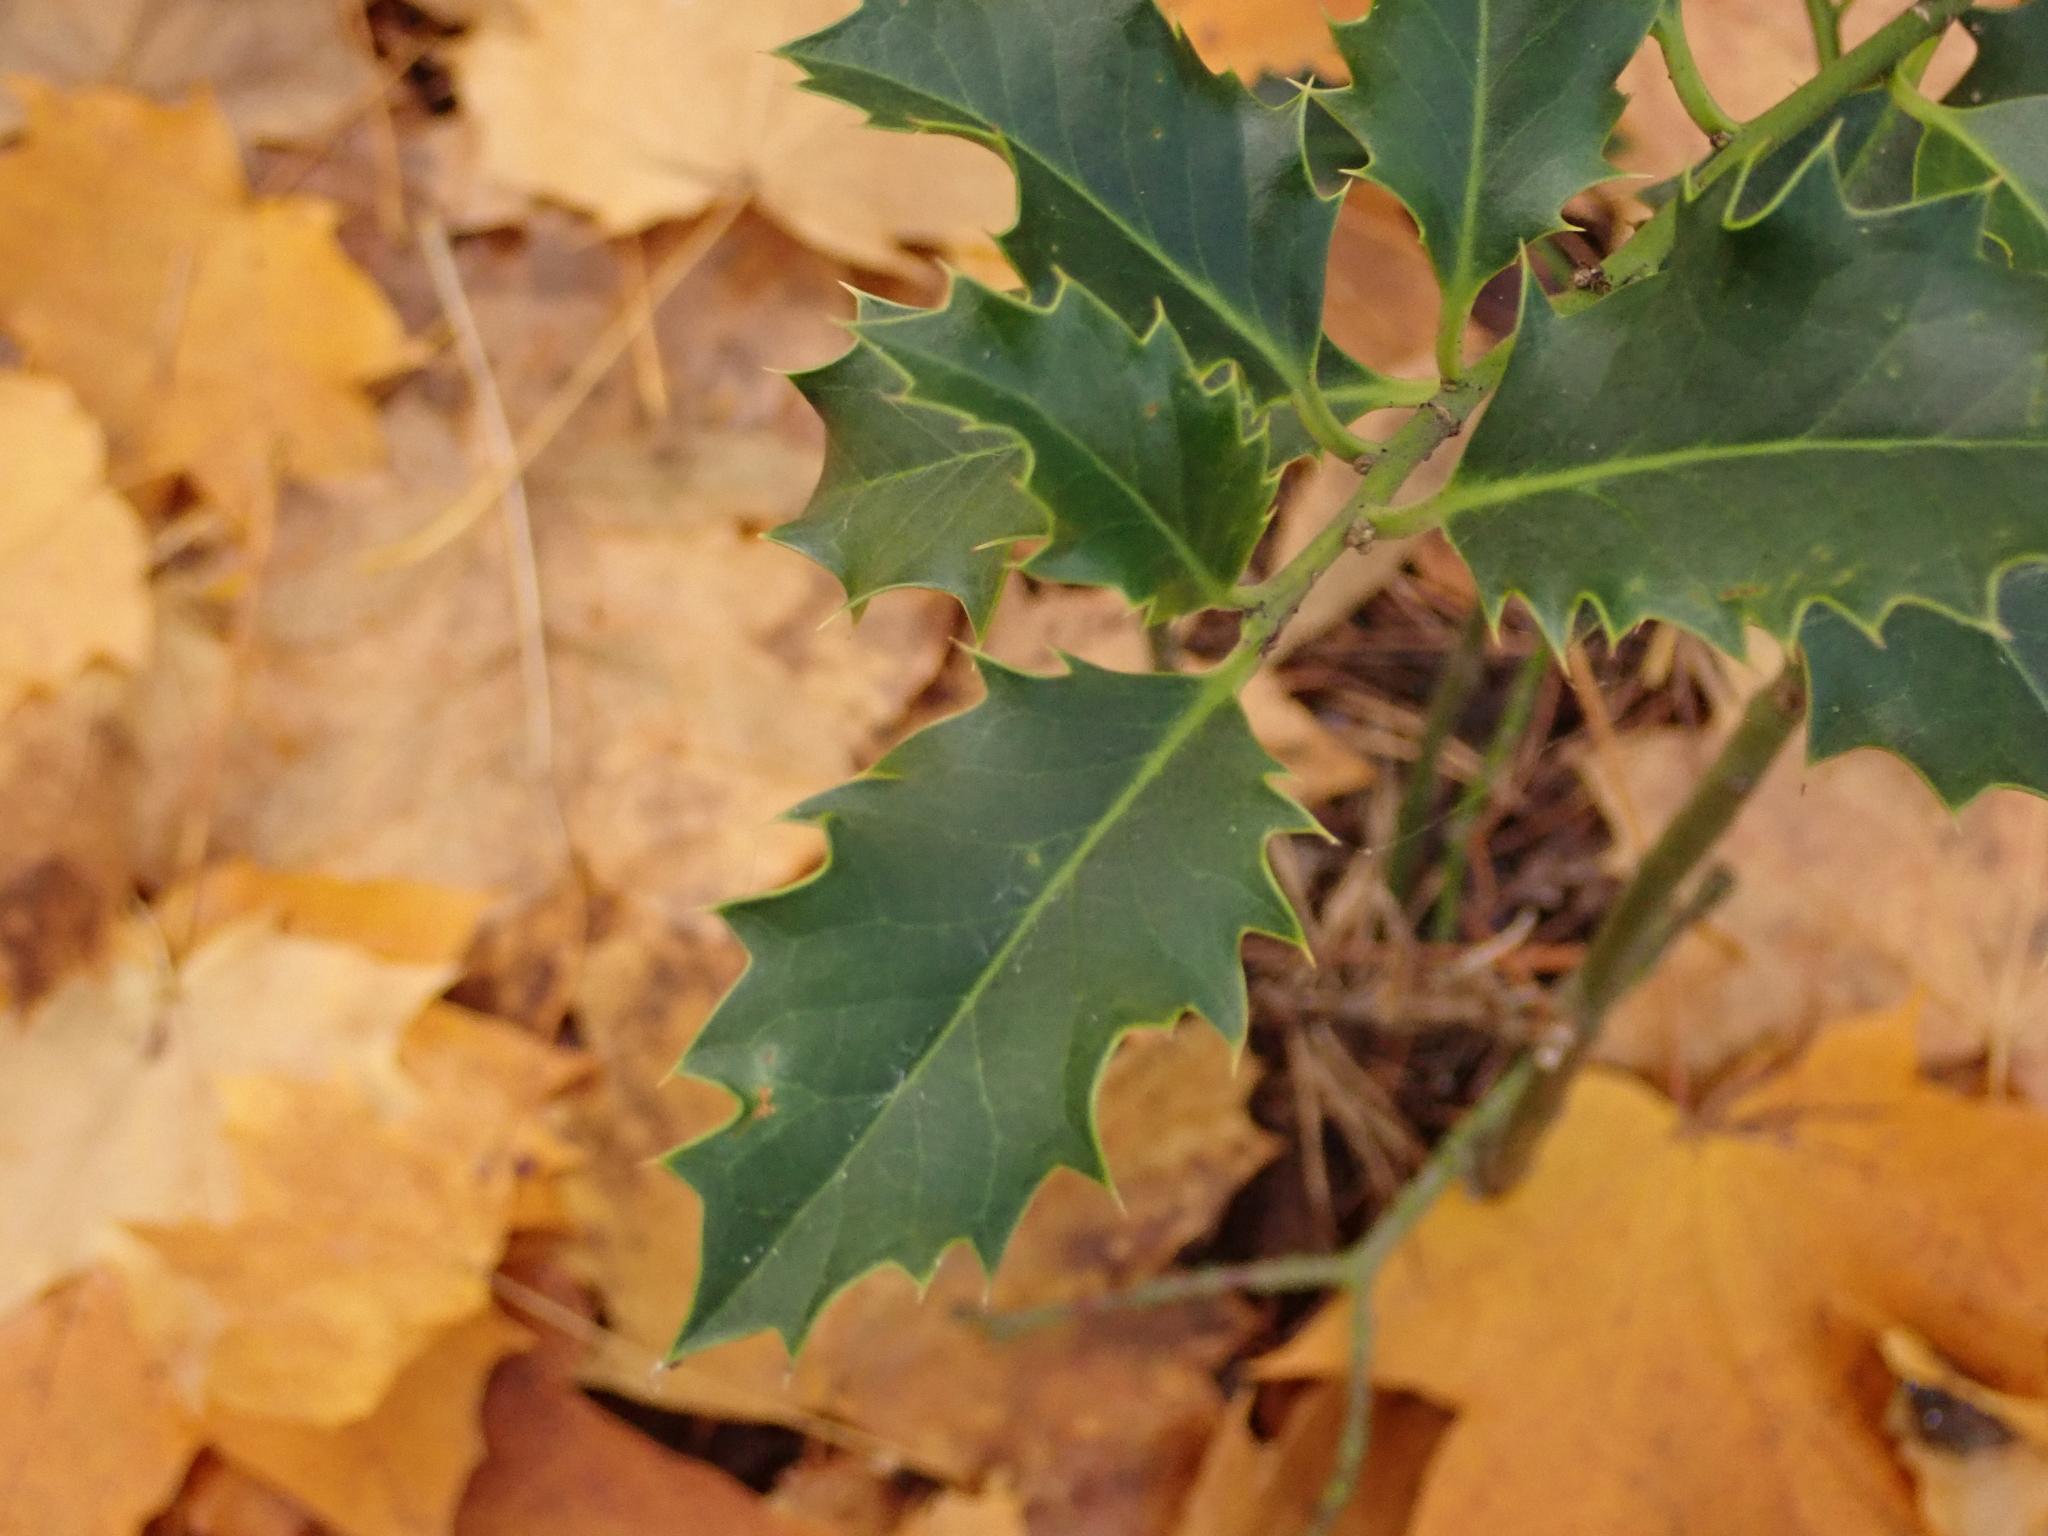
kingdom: Plantae
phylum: Tracheophyta
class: Magnoliopsida
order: Aquifoliales
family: Aquifoliaceae
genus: Ilex
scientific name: Ilex aquifolium
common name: English holly
